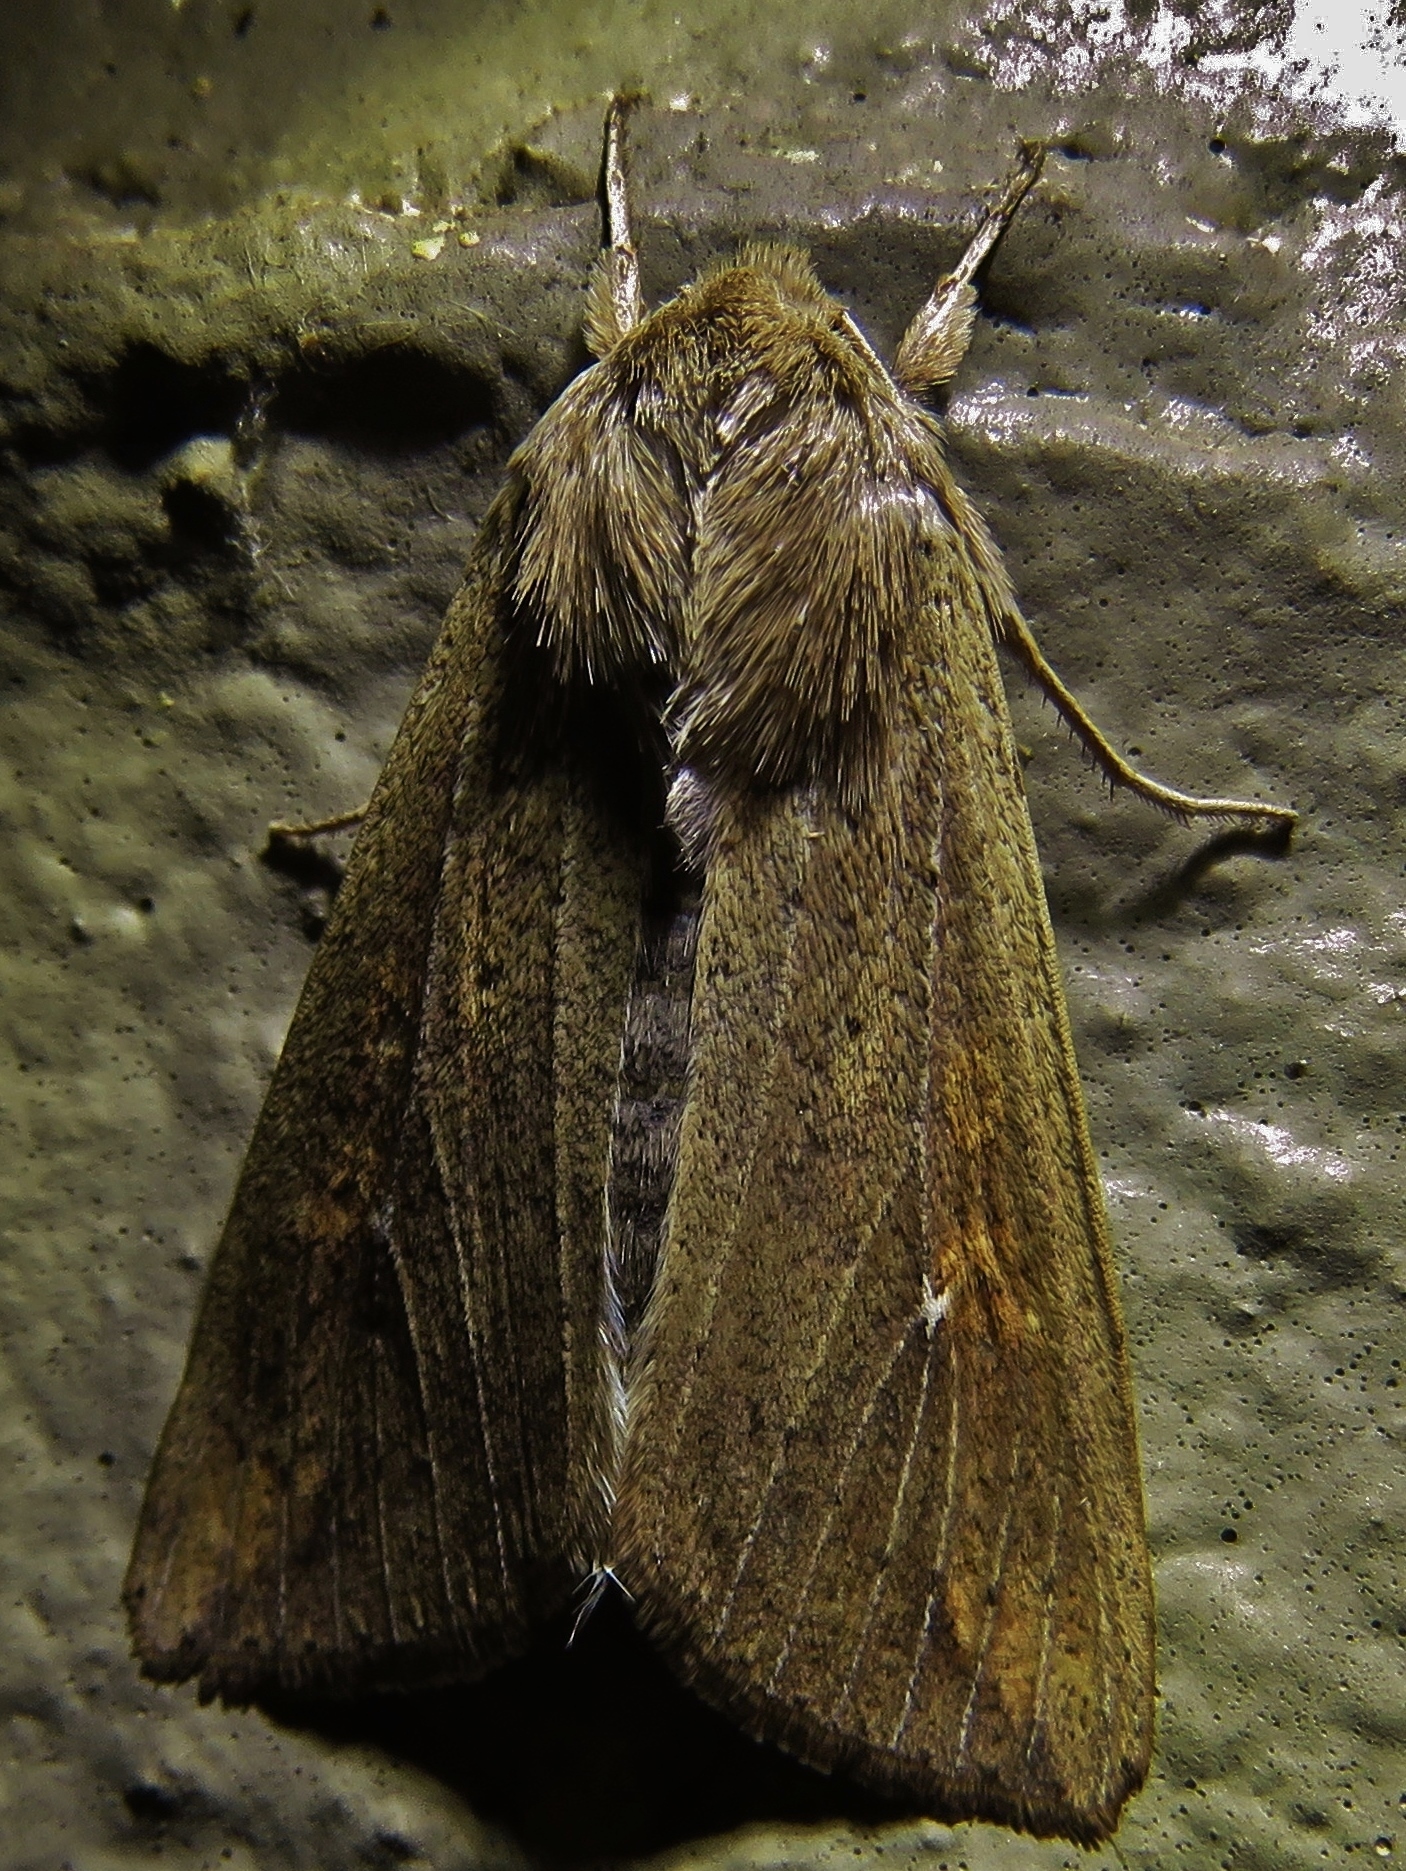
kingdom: Animalia
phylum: Arthropoda
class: Insecta
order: Lepidoptera
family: Noctuidae
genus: Mythimna
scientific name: Mythimna unipuncta
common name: White-speck
